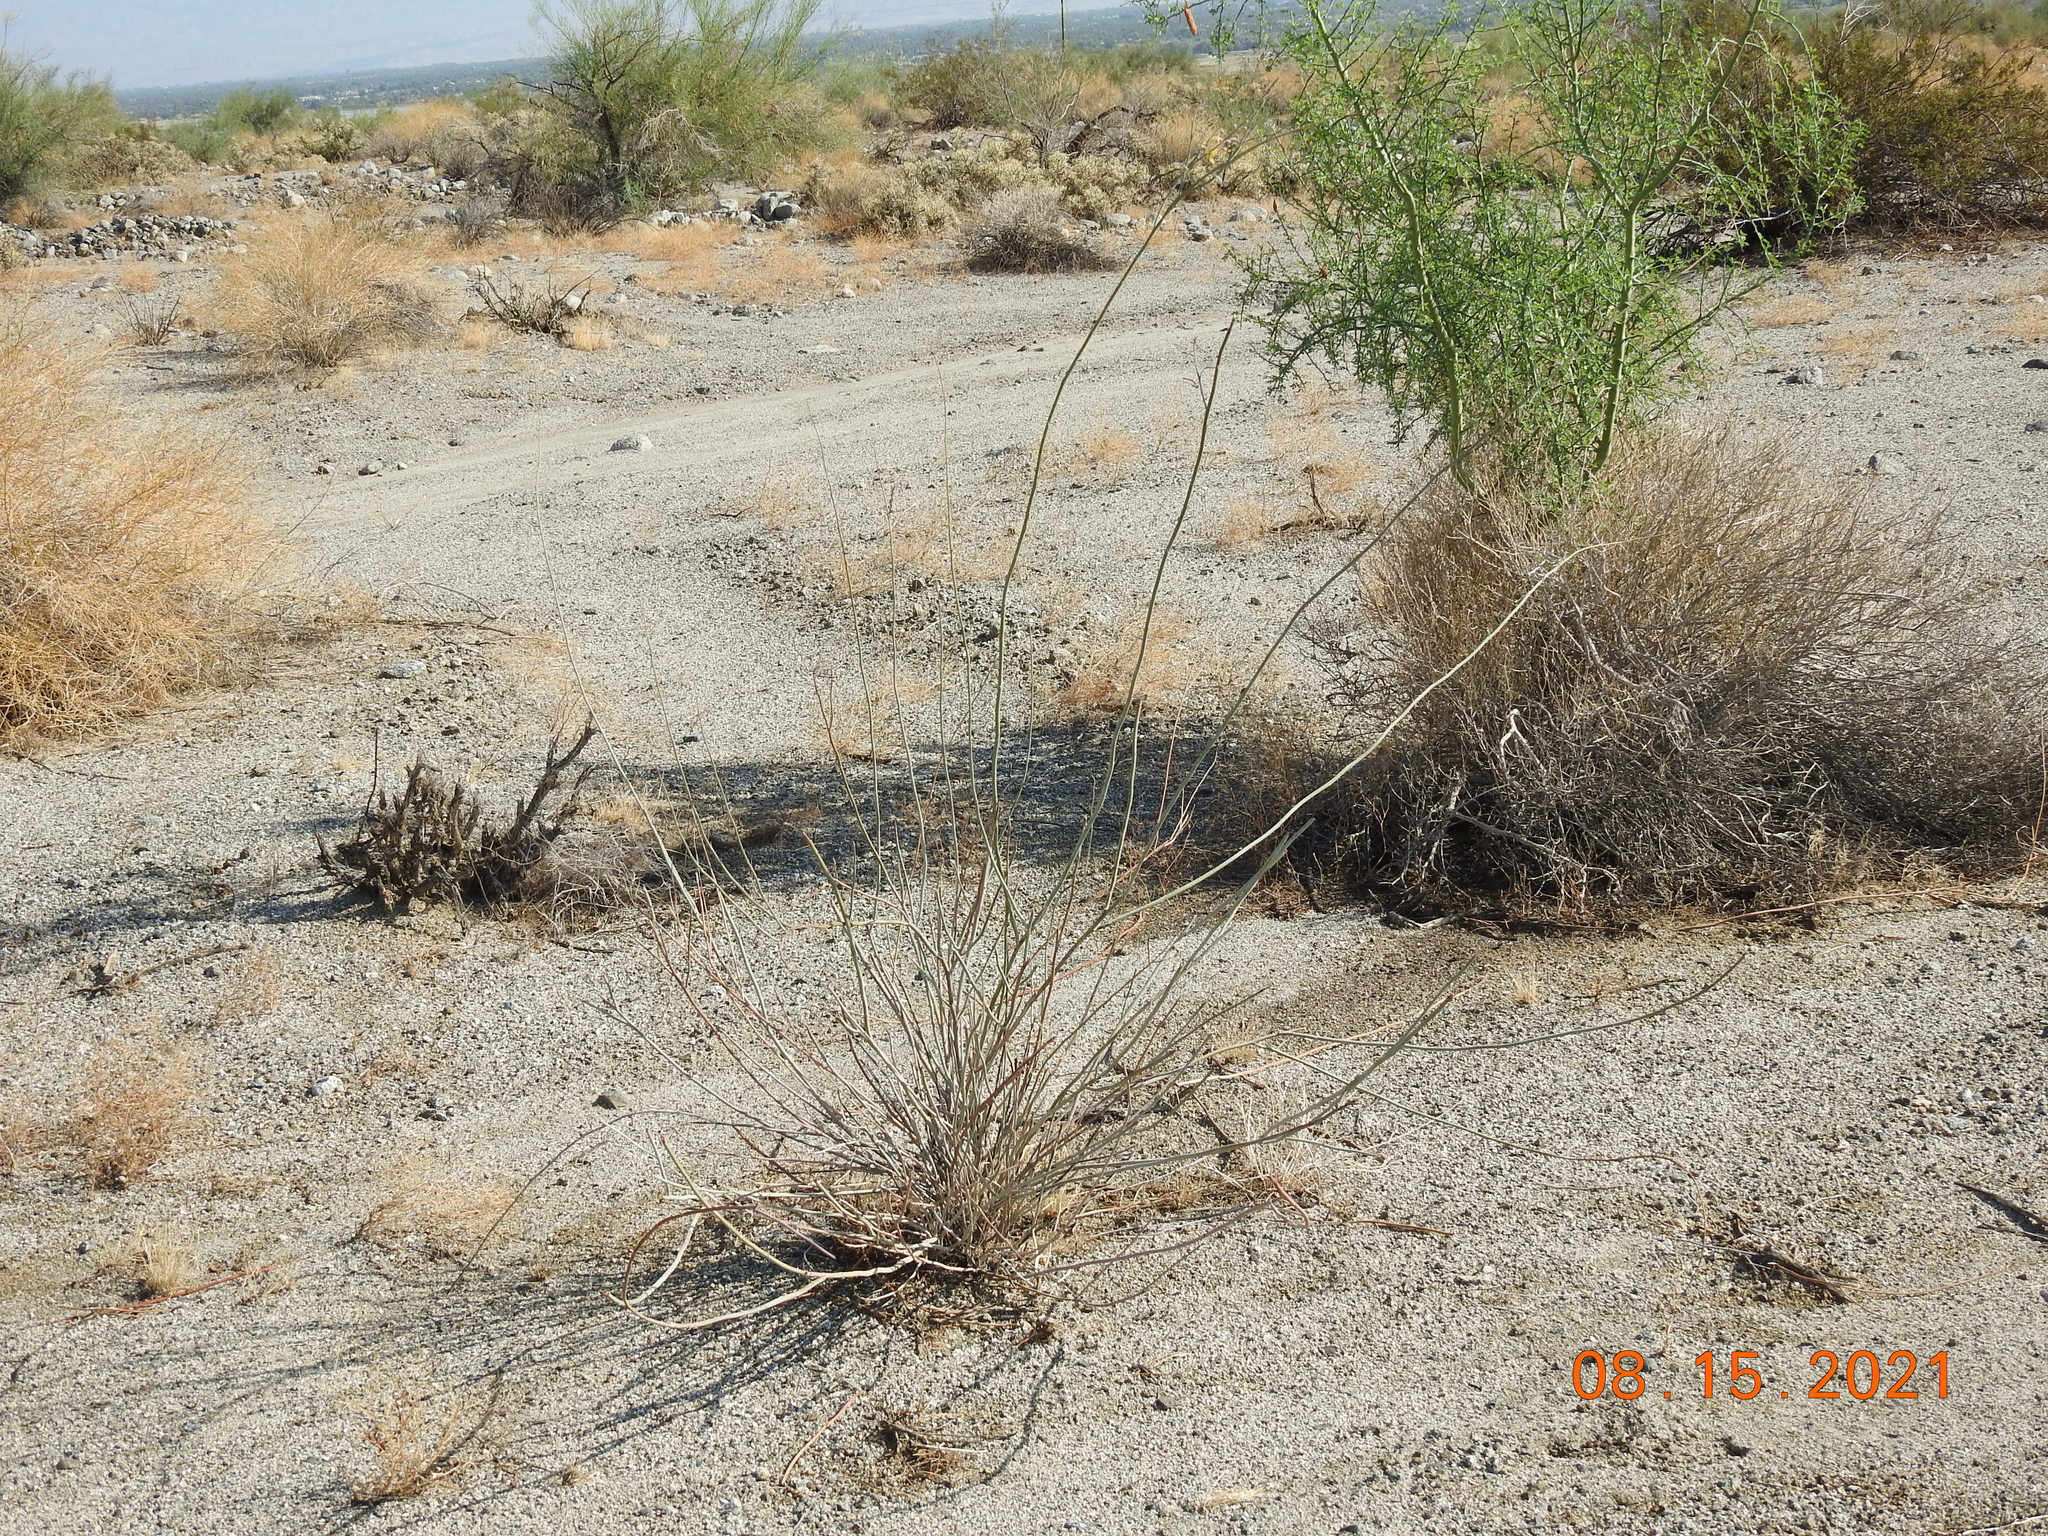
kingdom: Plantae
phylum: Tracheophyta
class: Magnoliopsida
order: Fabales
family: Fabaceae
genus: Hoffmannseggia
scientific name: Hoffmannseggia microphylla
